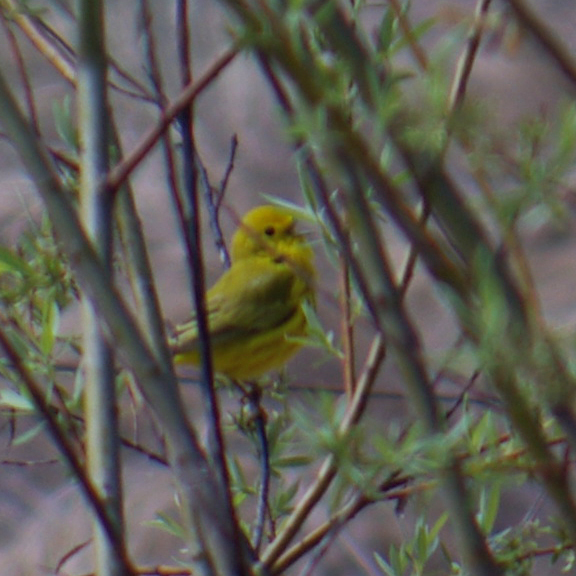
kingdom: Animalia
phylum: Chordata
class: Aves
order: Passeriformes
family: Parulidae
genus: Setophaga
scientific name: Setophaga petechia
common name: Yellow warbler
